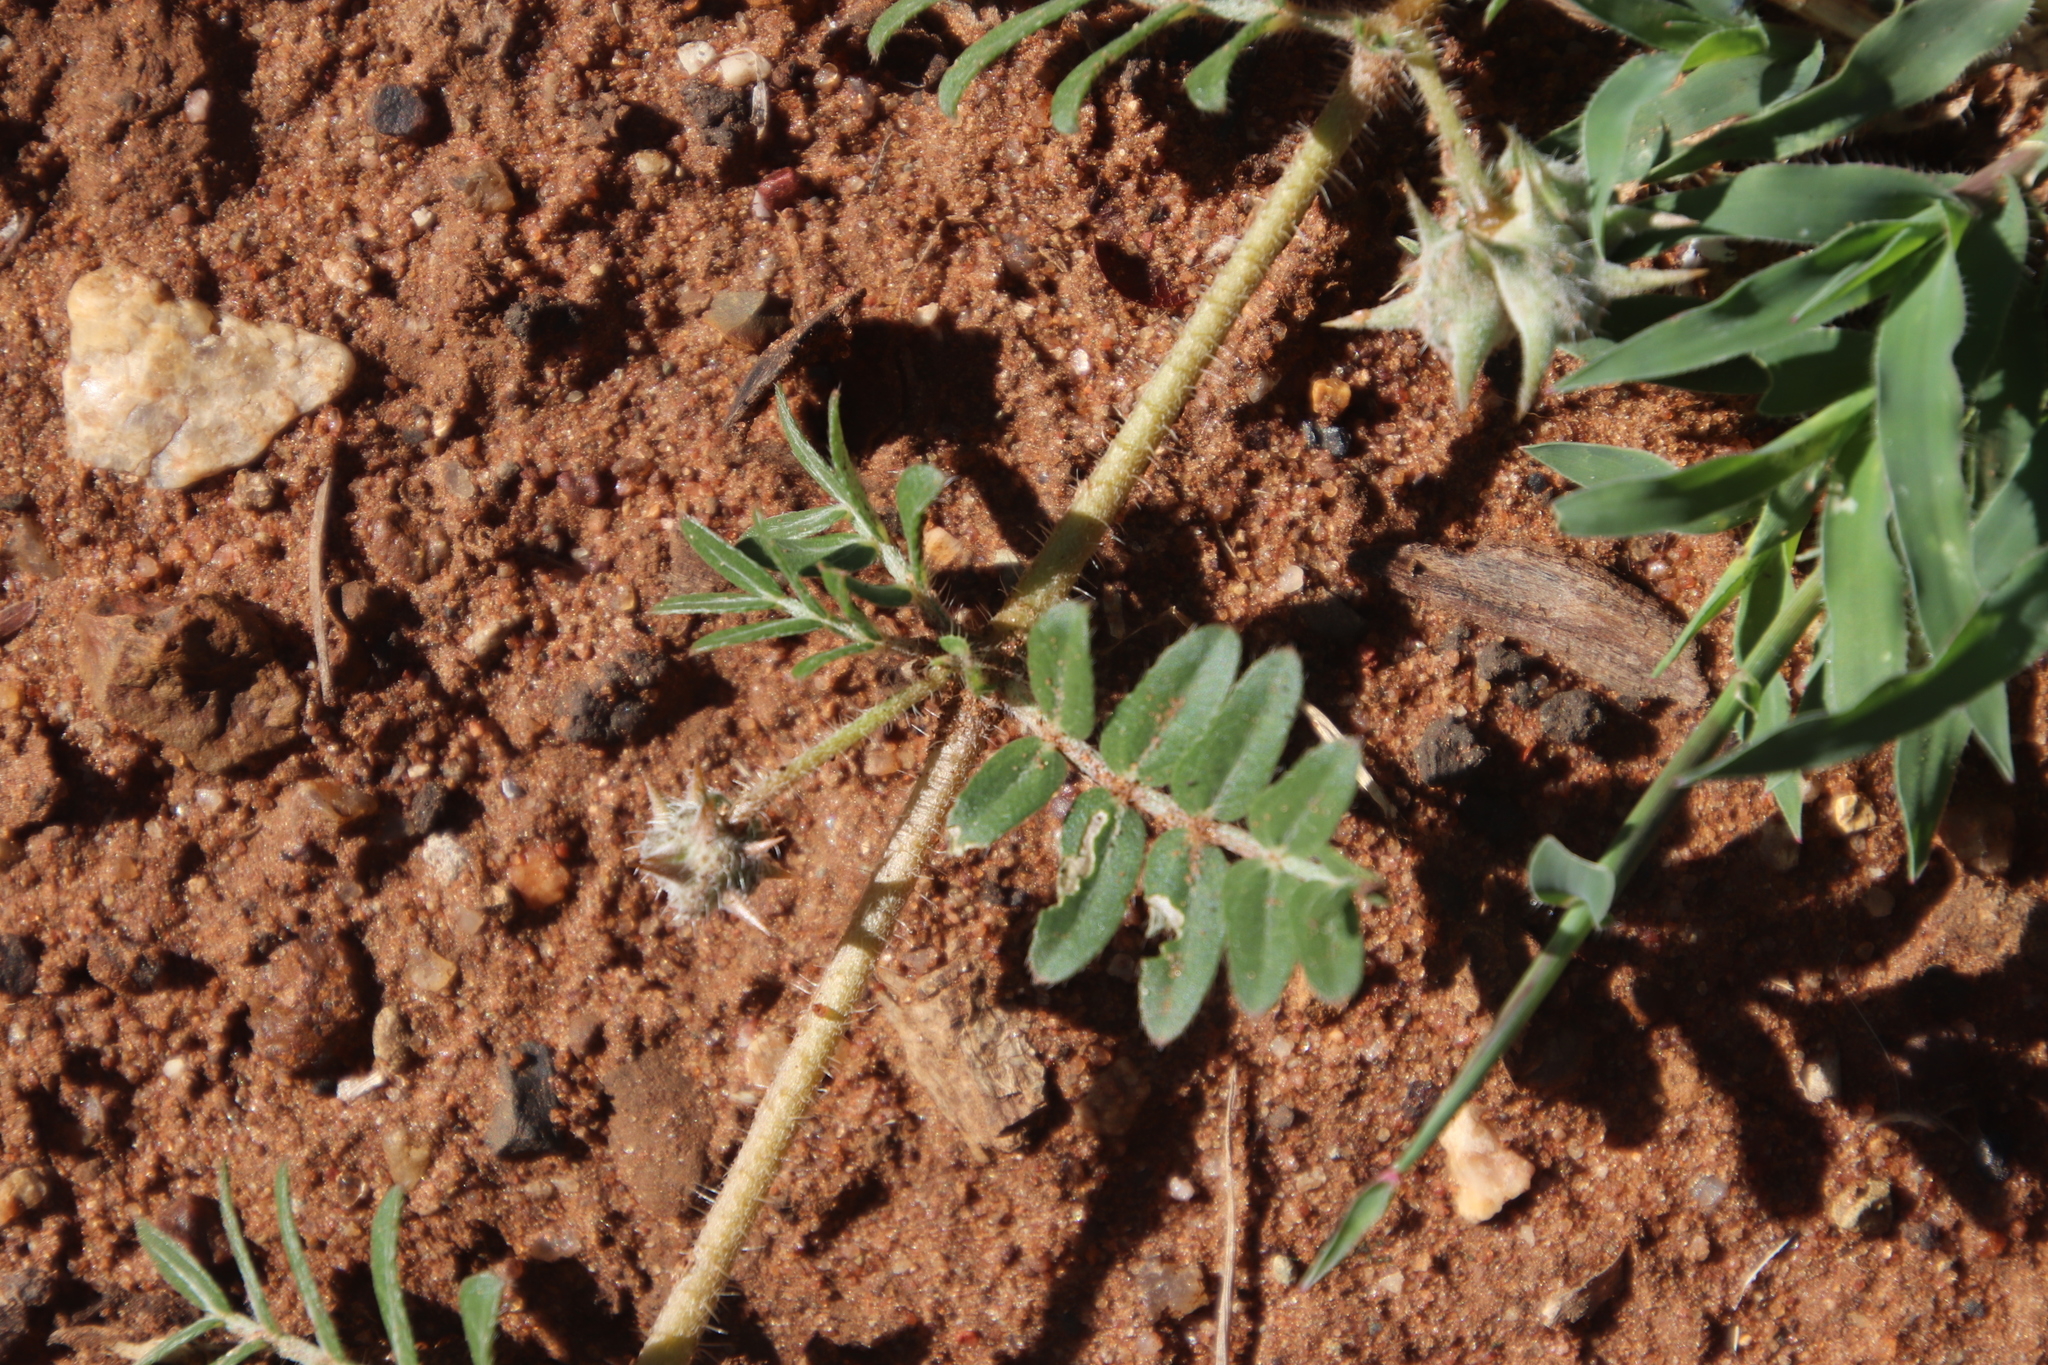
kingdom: Plantae
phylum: Tracheophyta
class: Magnoliopsida
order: Zygophyllales
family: Zygophyllaceae
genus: Tribulus
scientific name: Tribulus terrestris
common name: Puncturevine
